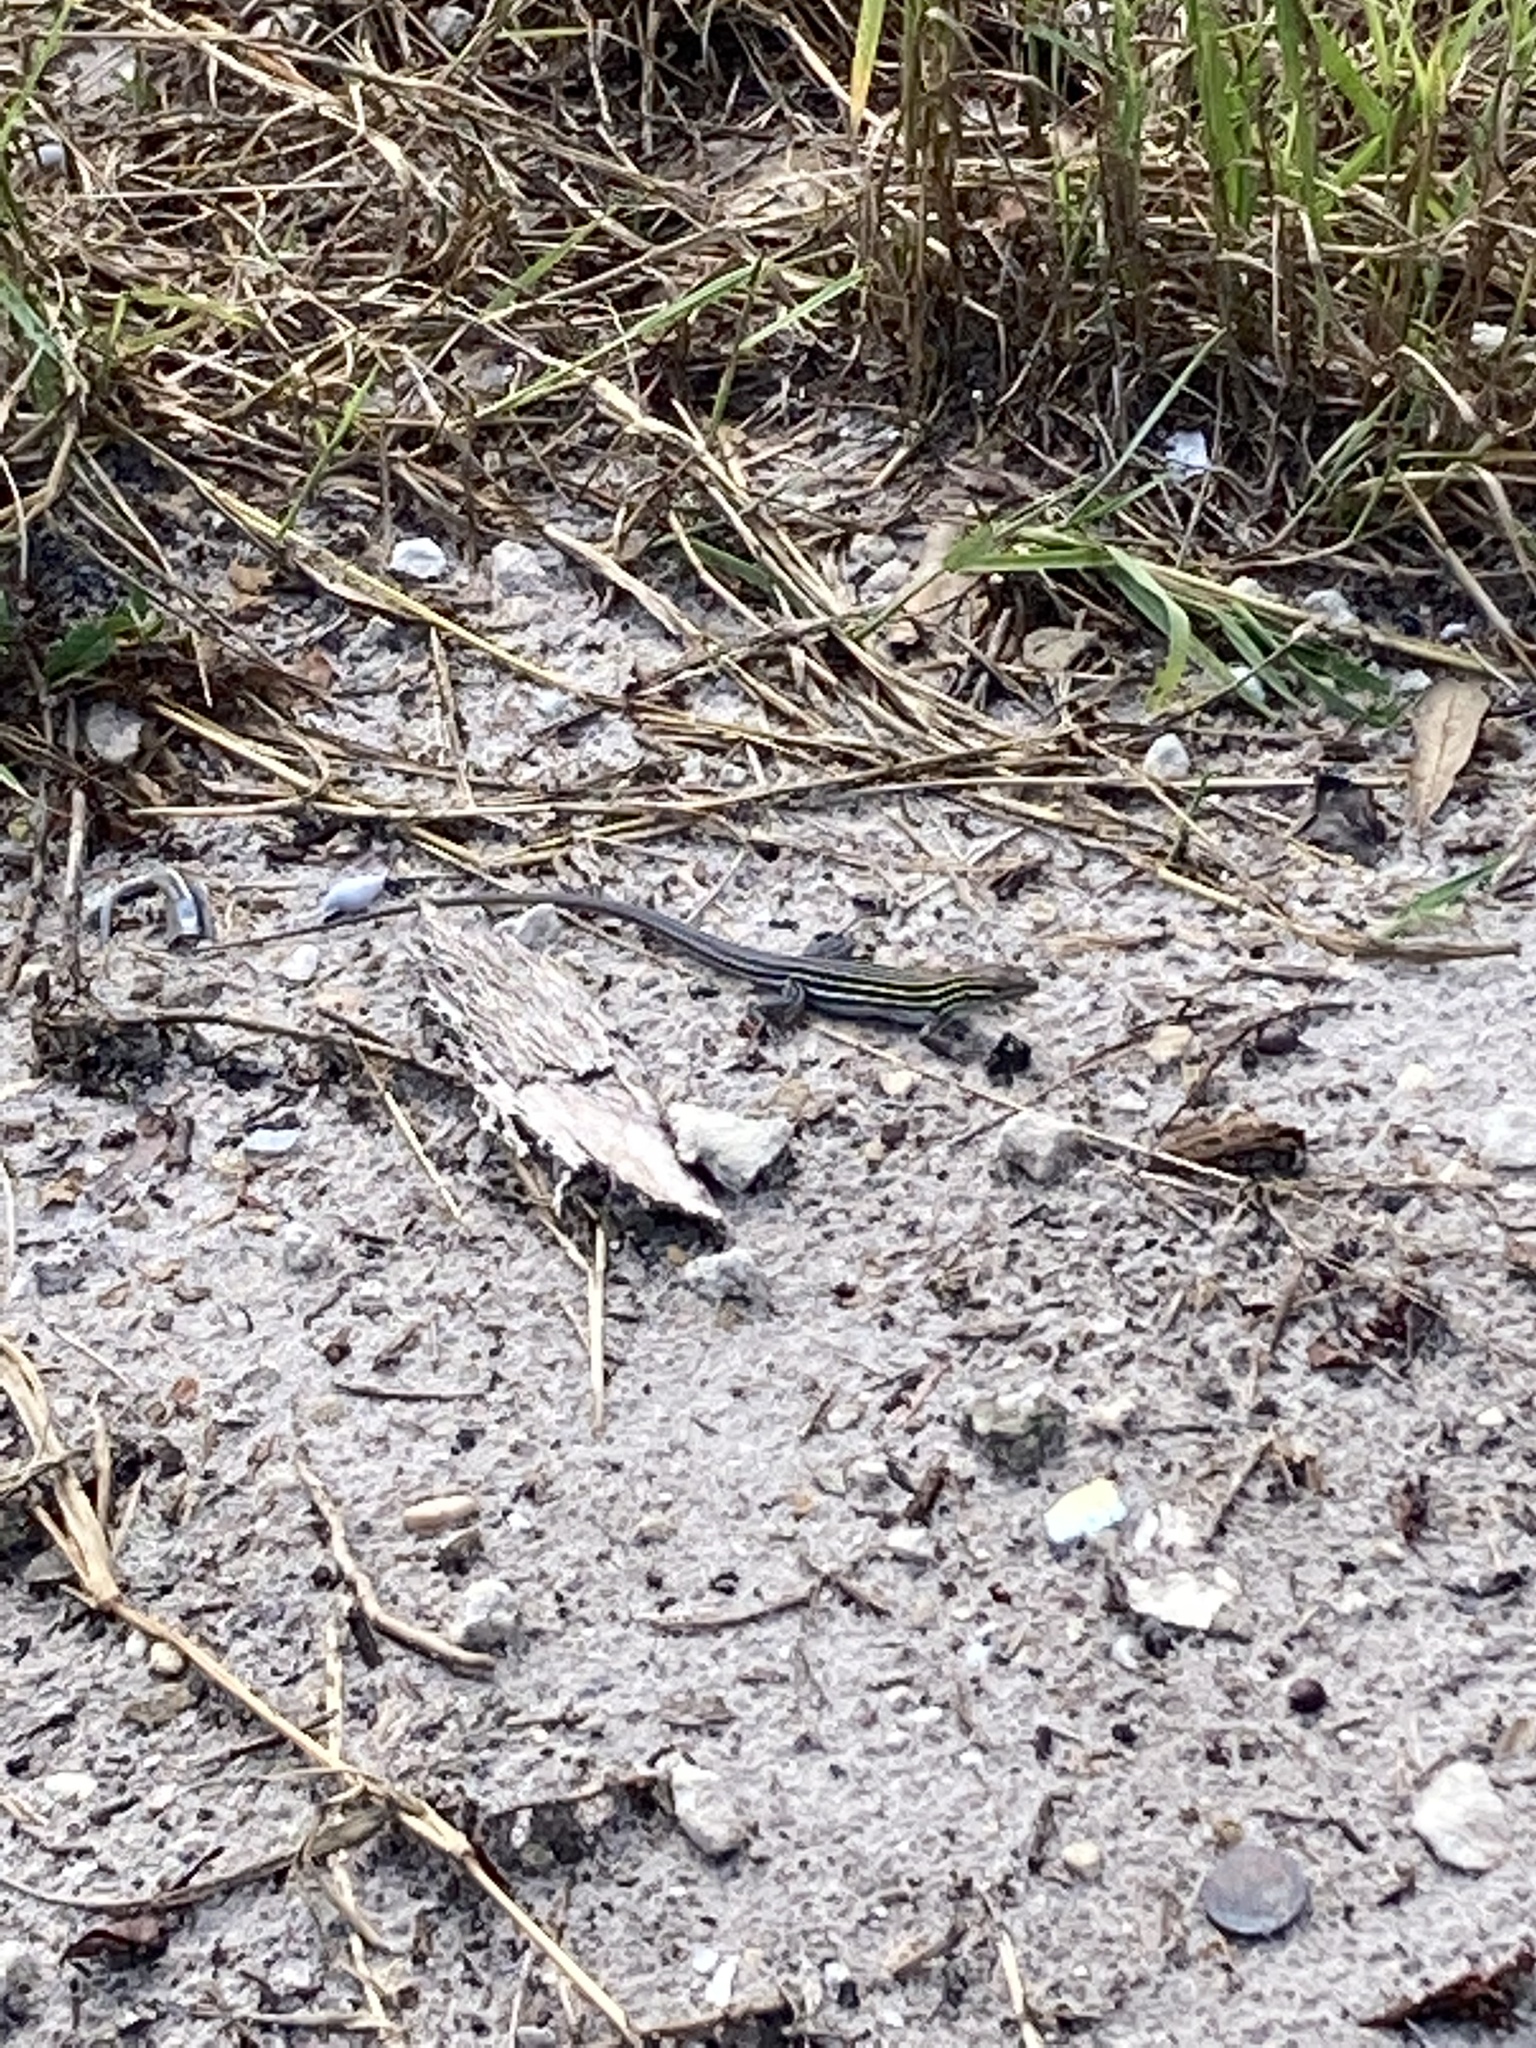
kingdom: Animalia
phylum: Chordata
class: Squamata
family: Teiidae
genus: Aspidoscelis
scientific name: Aspidoscelis sexlineatus
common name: Six-lined racerunner
